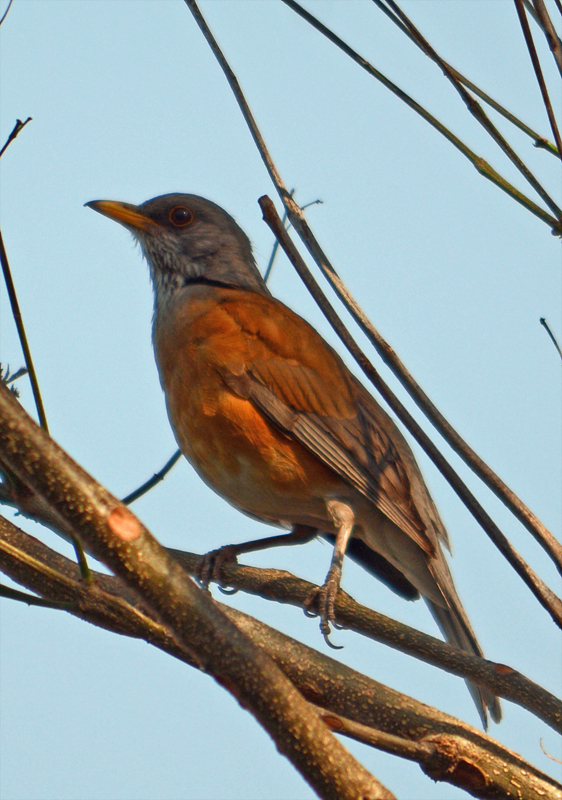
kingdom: Animalia
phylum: Chordata
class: Aves
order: Passeriformes
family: Turdidae
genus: Turdus
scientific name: Turdus rufopalliatus
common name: Rufous-backed robin
